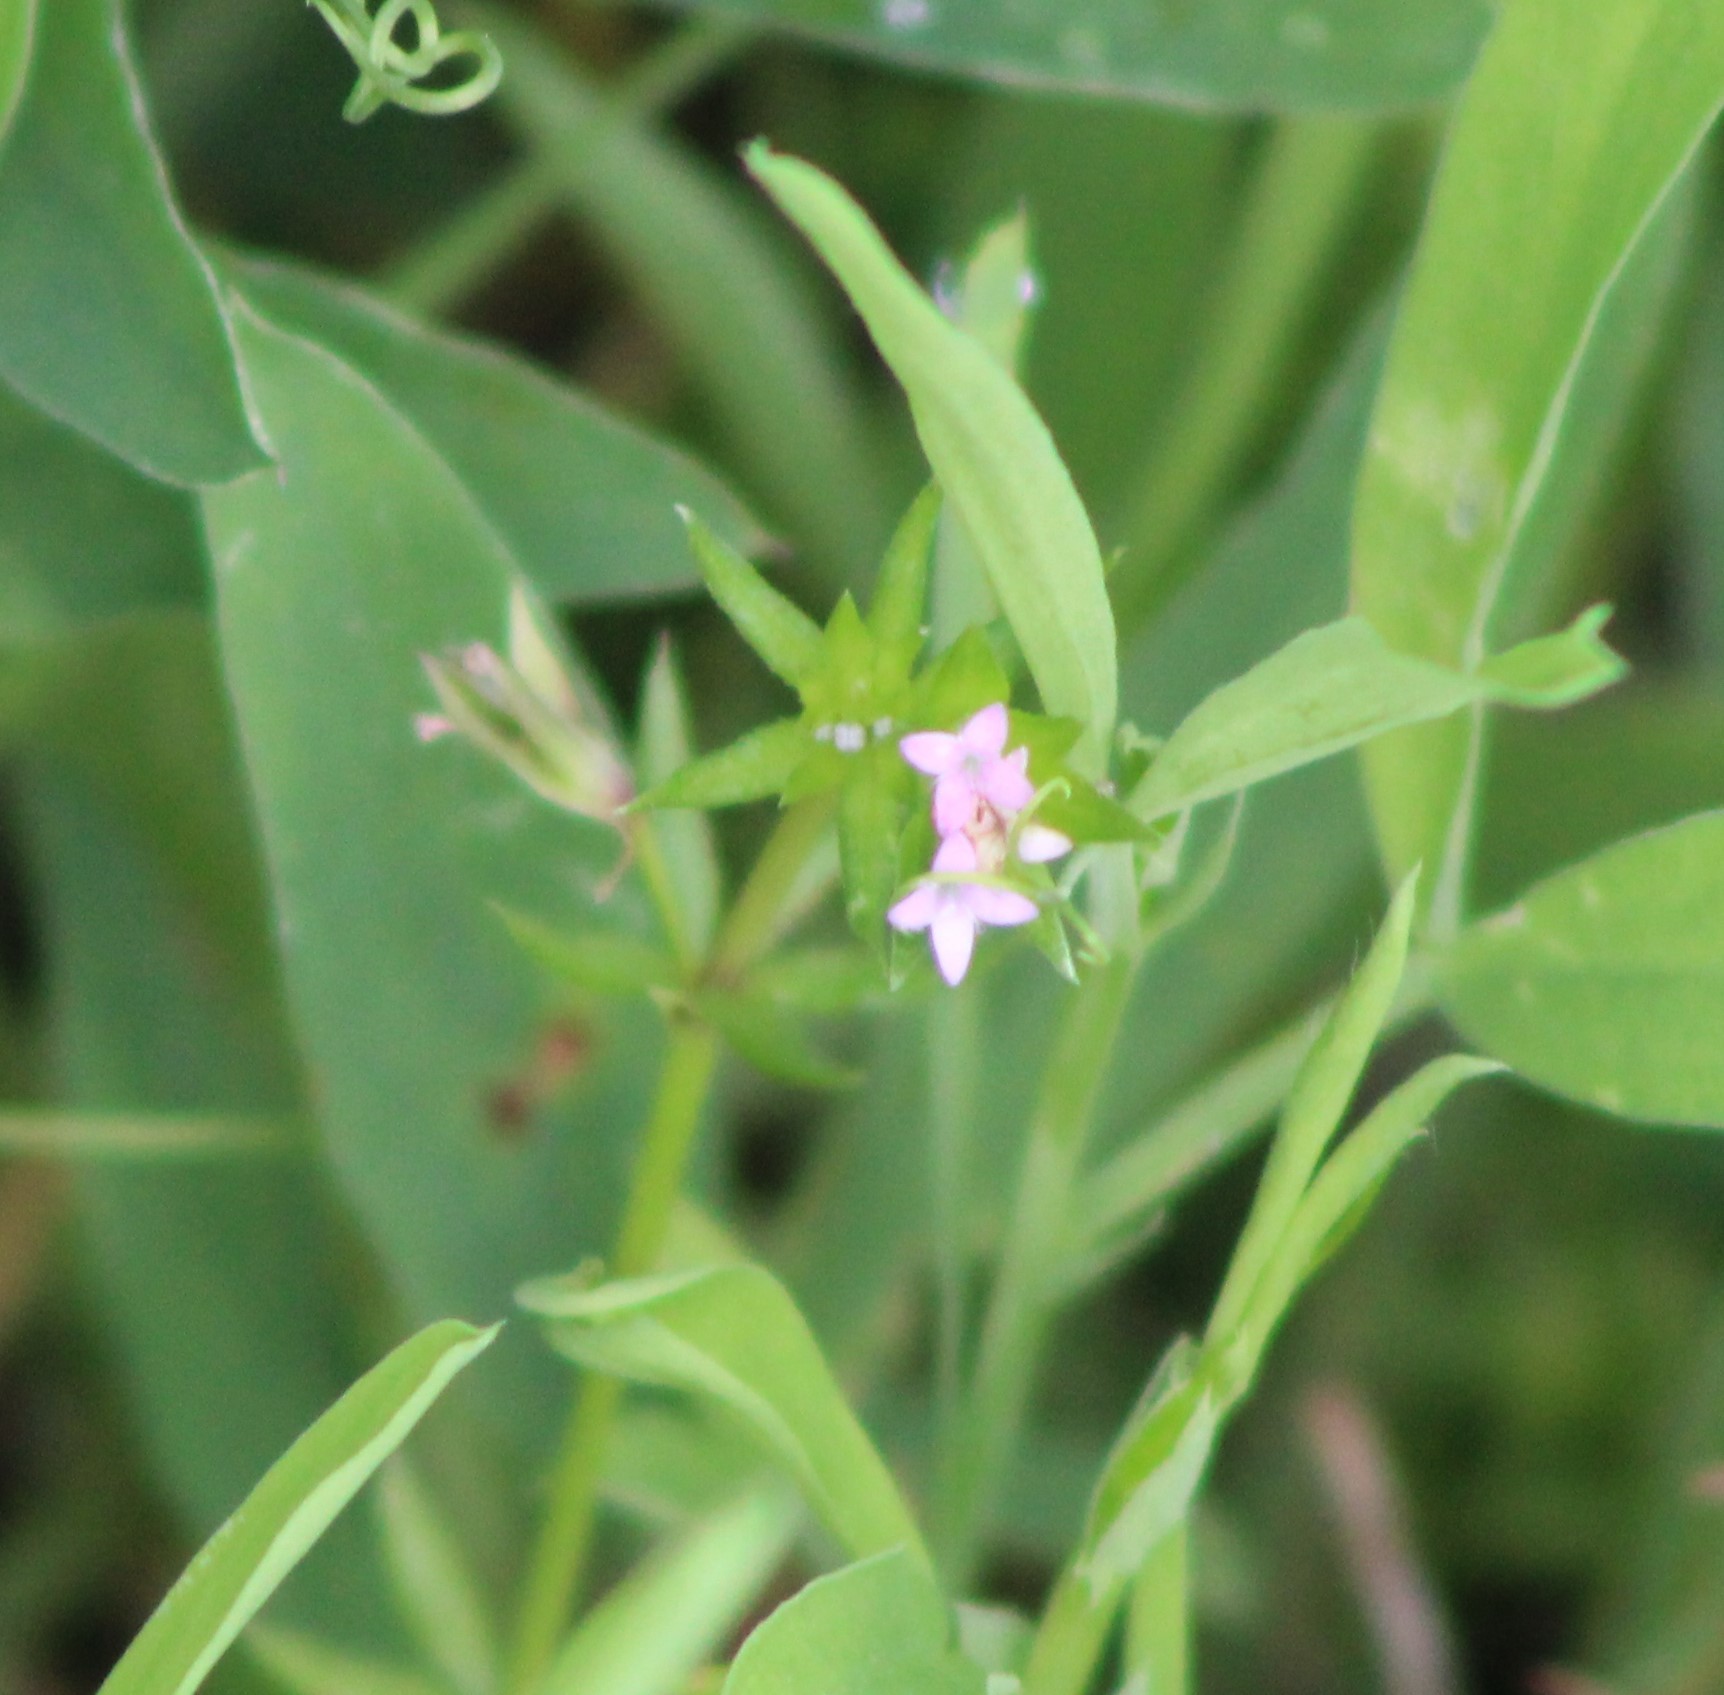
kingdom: Plantae
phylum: Tracheophyta
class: Magnoliopsida
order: Gentianales
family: Rubiaceae
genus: Sherardia
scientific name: Sherardia arvensis
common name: Field madder
